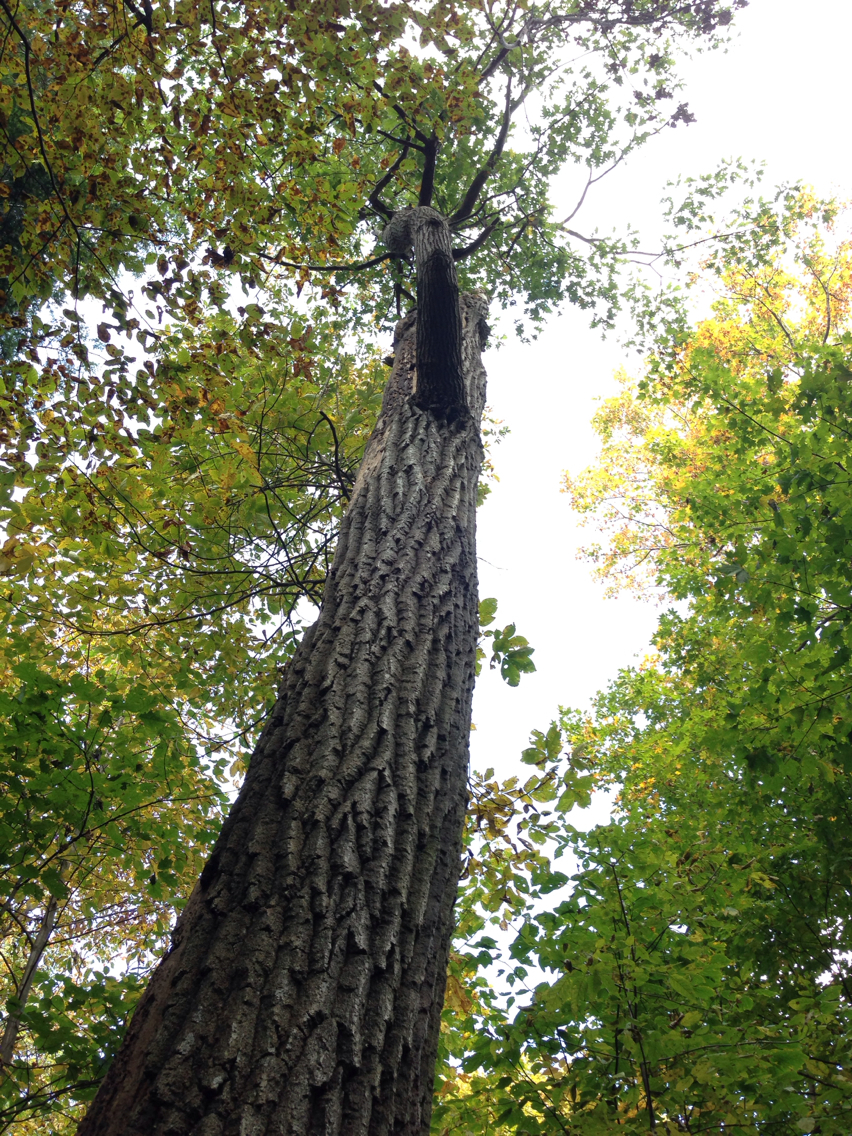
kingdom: Plantae
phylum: Tracheophyta
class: Magnoliopsida
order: Fagales
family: Fagaceae
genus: Quercus
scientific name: Quercus rubra
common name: Red oak
